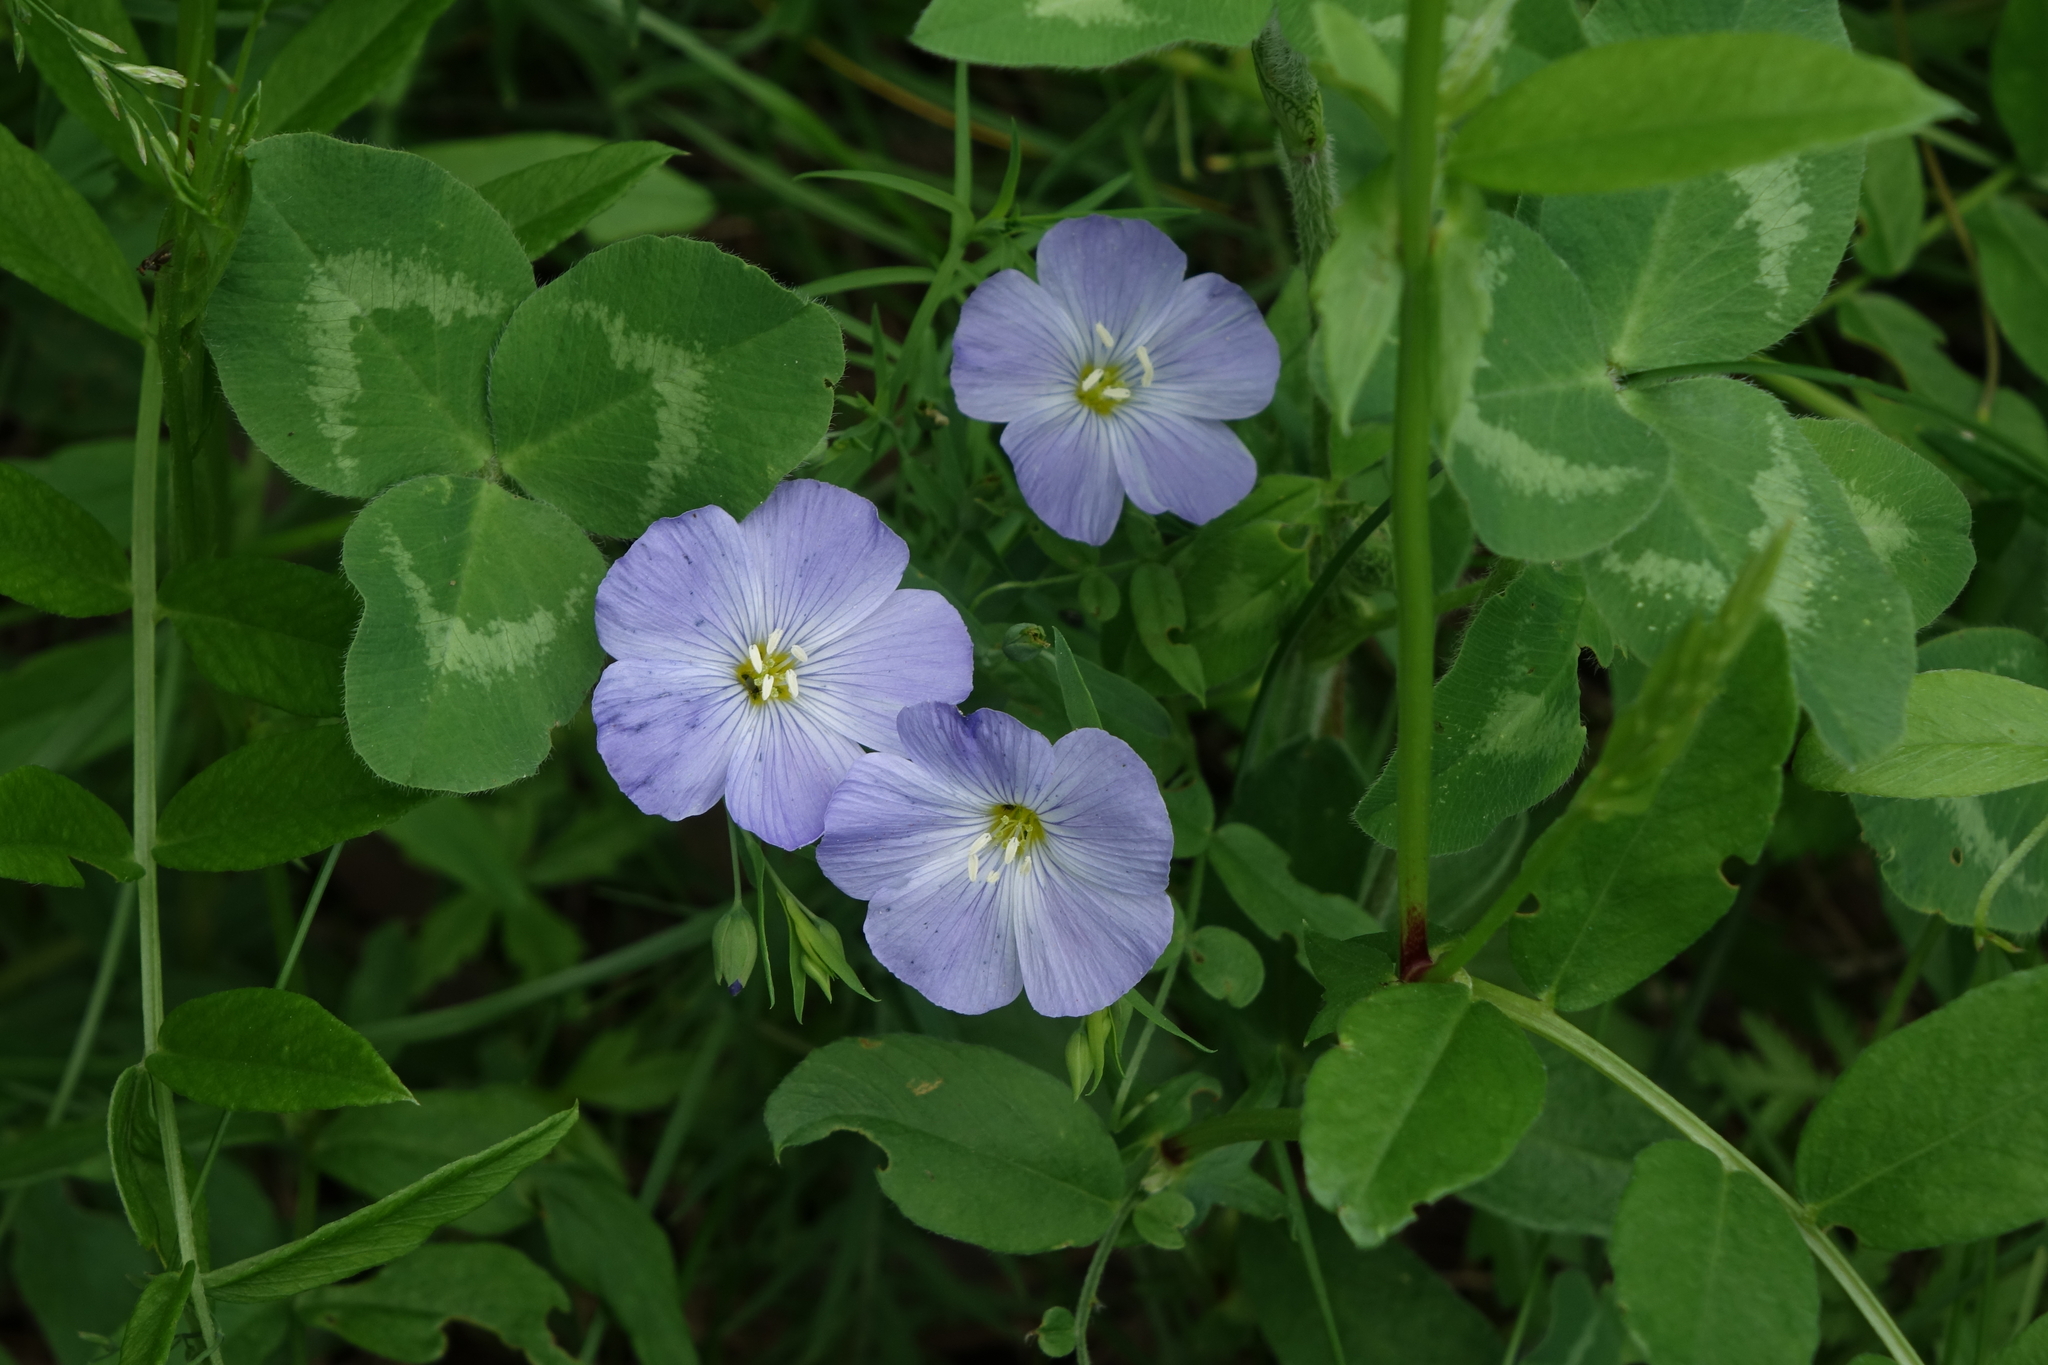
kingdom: Plantae
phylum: Tracheophyta
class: Magnoliopsida
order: Malpighiales
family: Linaceae
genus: Linum
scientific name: Linum komarovii
